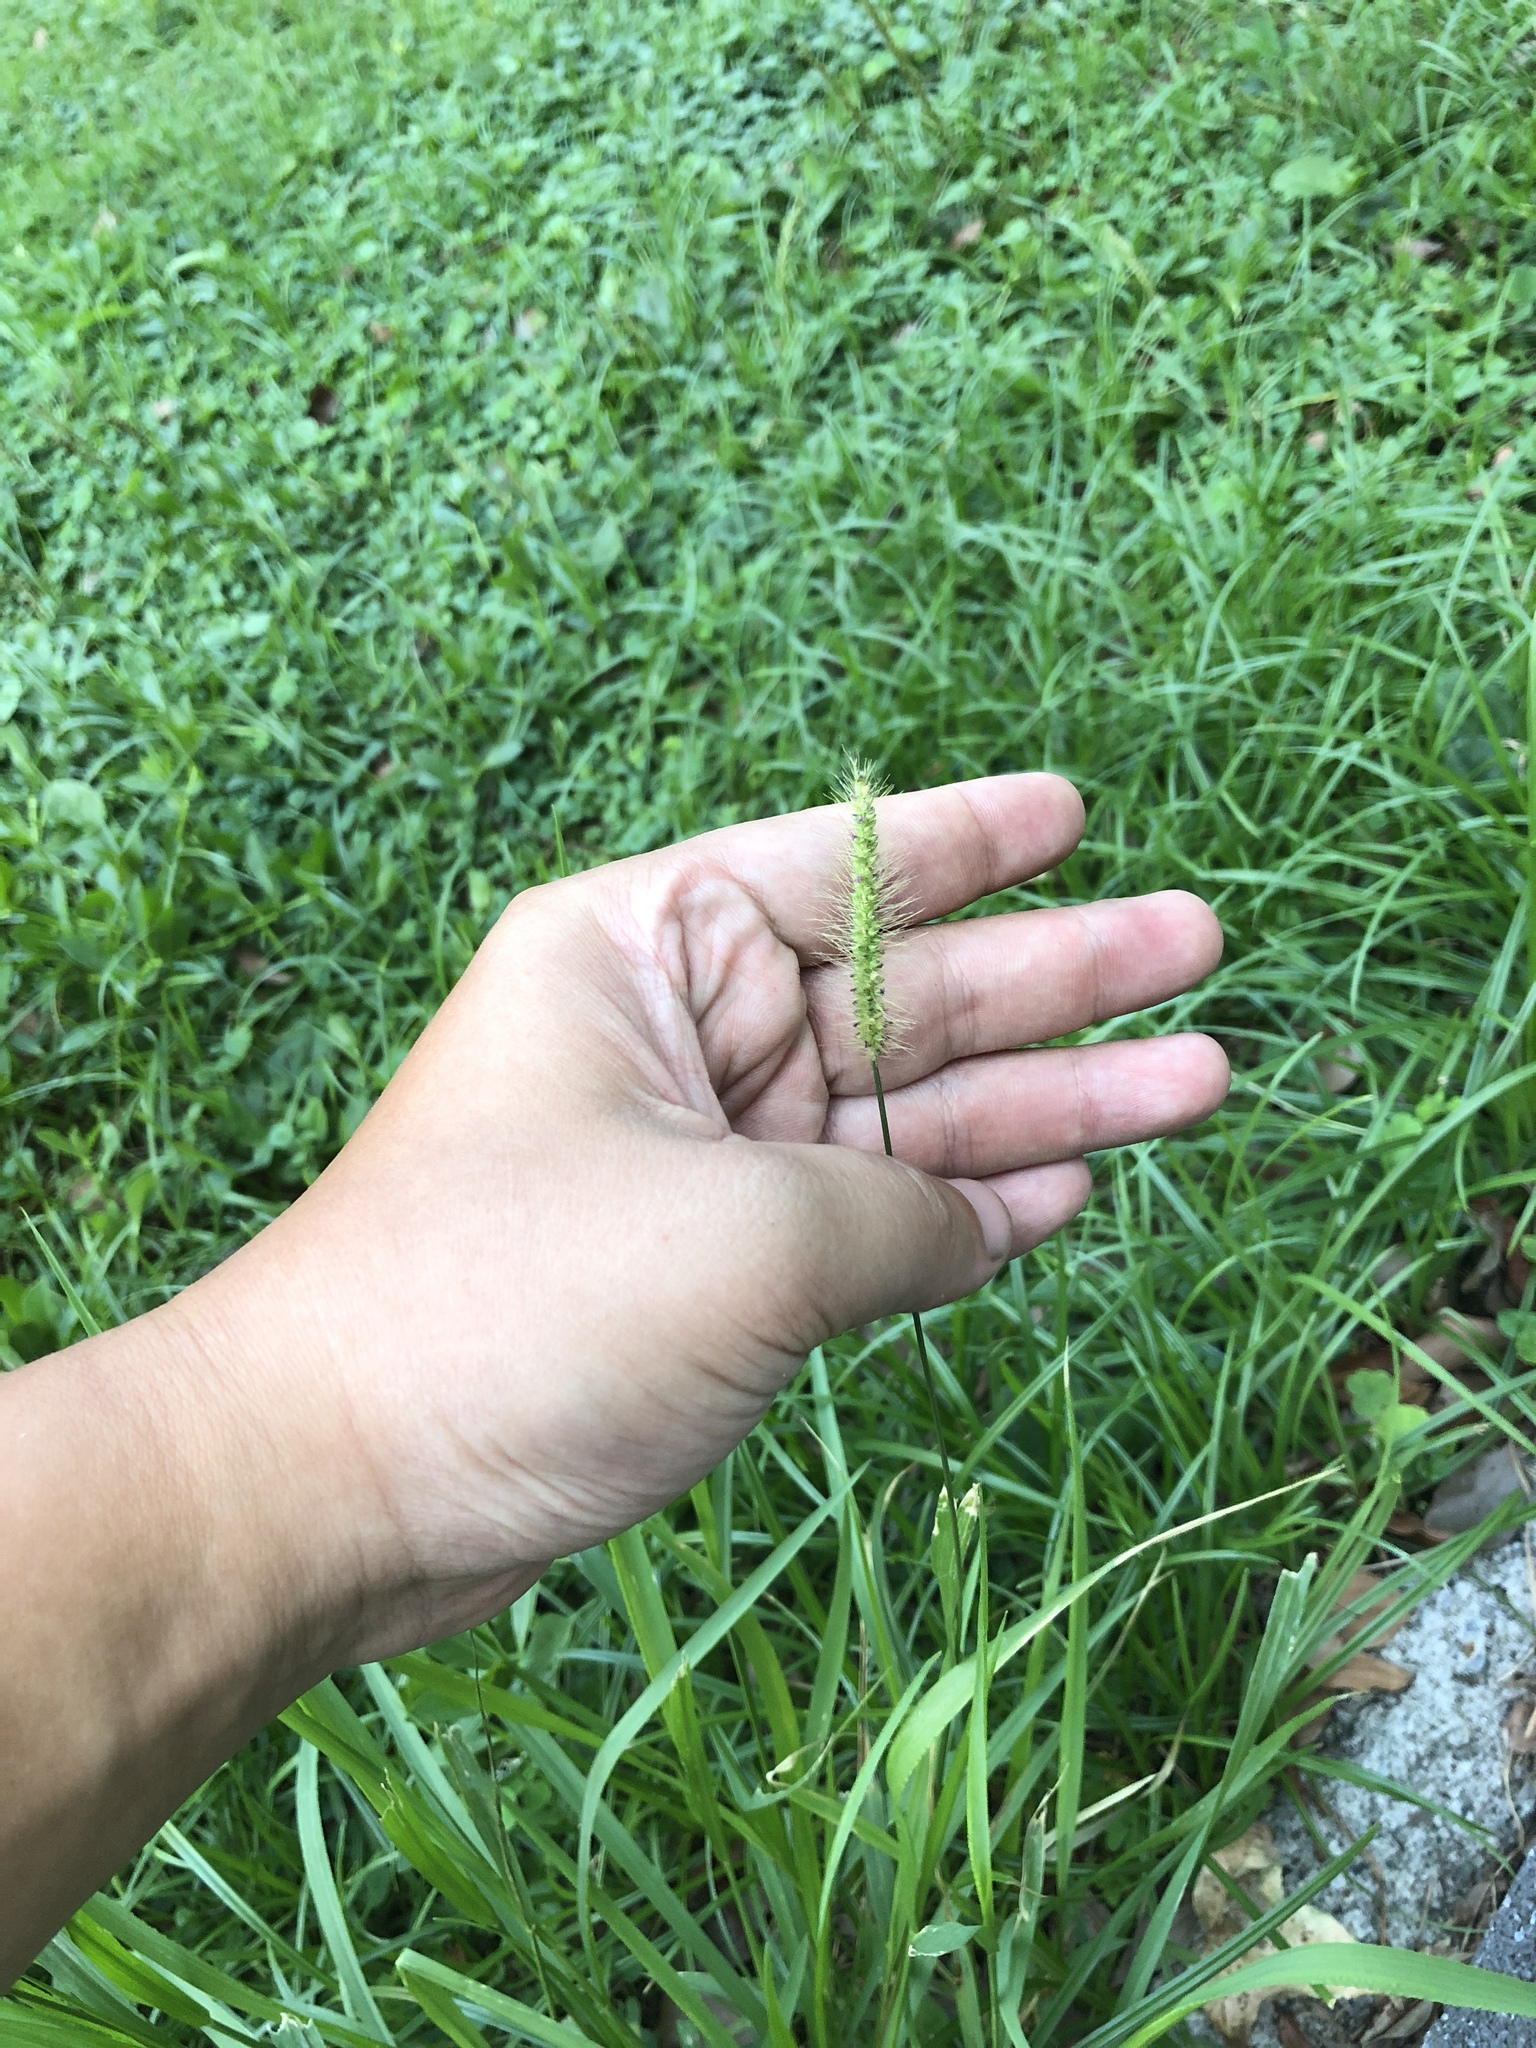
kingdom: Plantae
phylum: Tracheophyta
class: Liliopsida
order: Poales
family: Poaceae
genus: Setaria
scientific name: Setaria parviflora
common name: Knotroot bristle-grass
